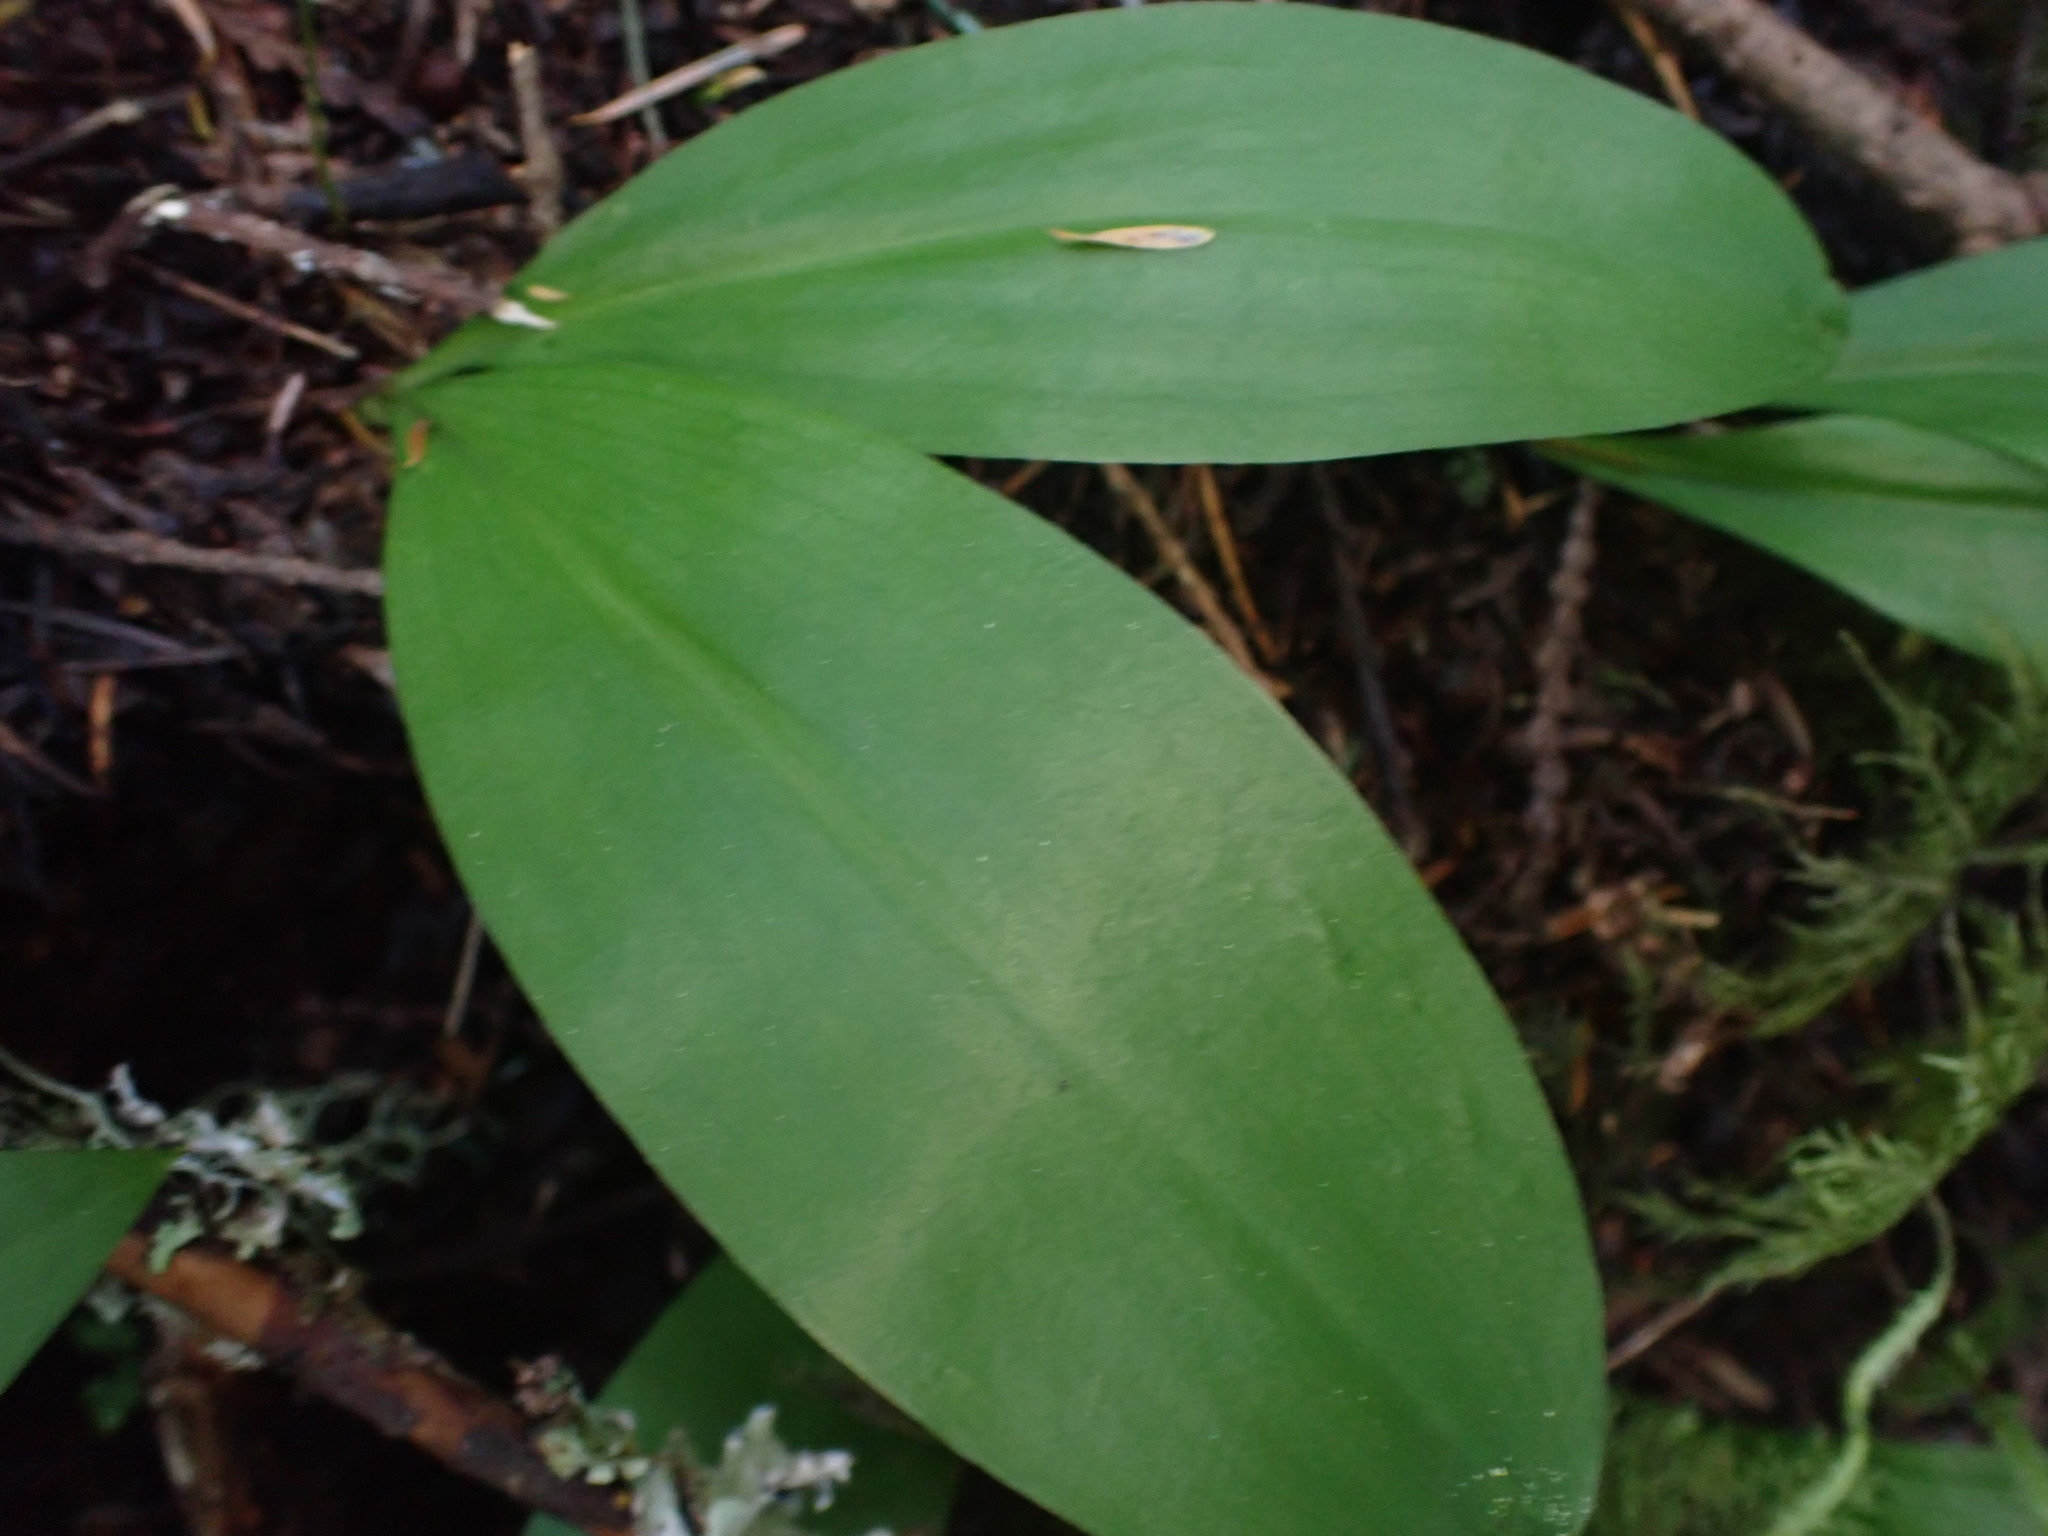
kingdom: Plantae
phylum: Tracheophyta
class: Liliopsida
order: Liliales
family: Liliaceae
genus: Clintonia
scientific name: Clintonia uniflora
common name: Queen's cup
